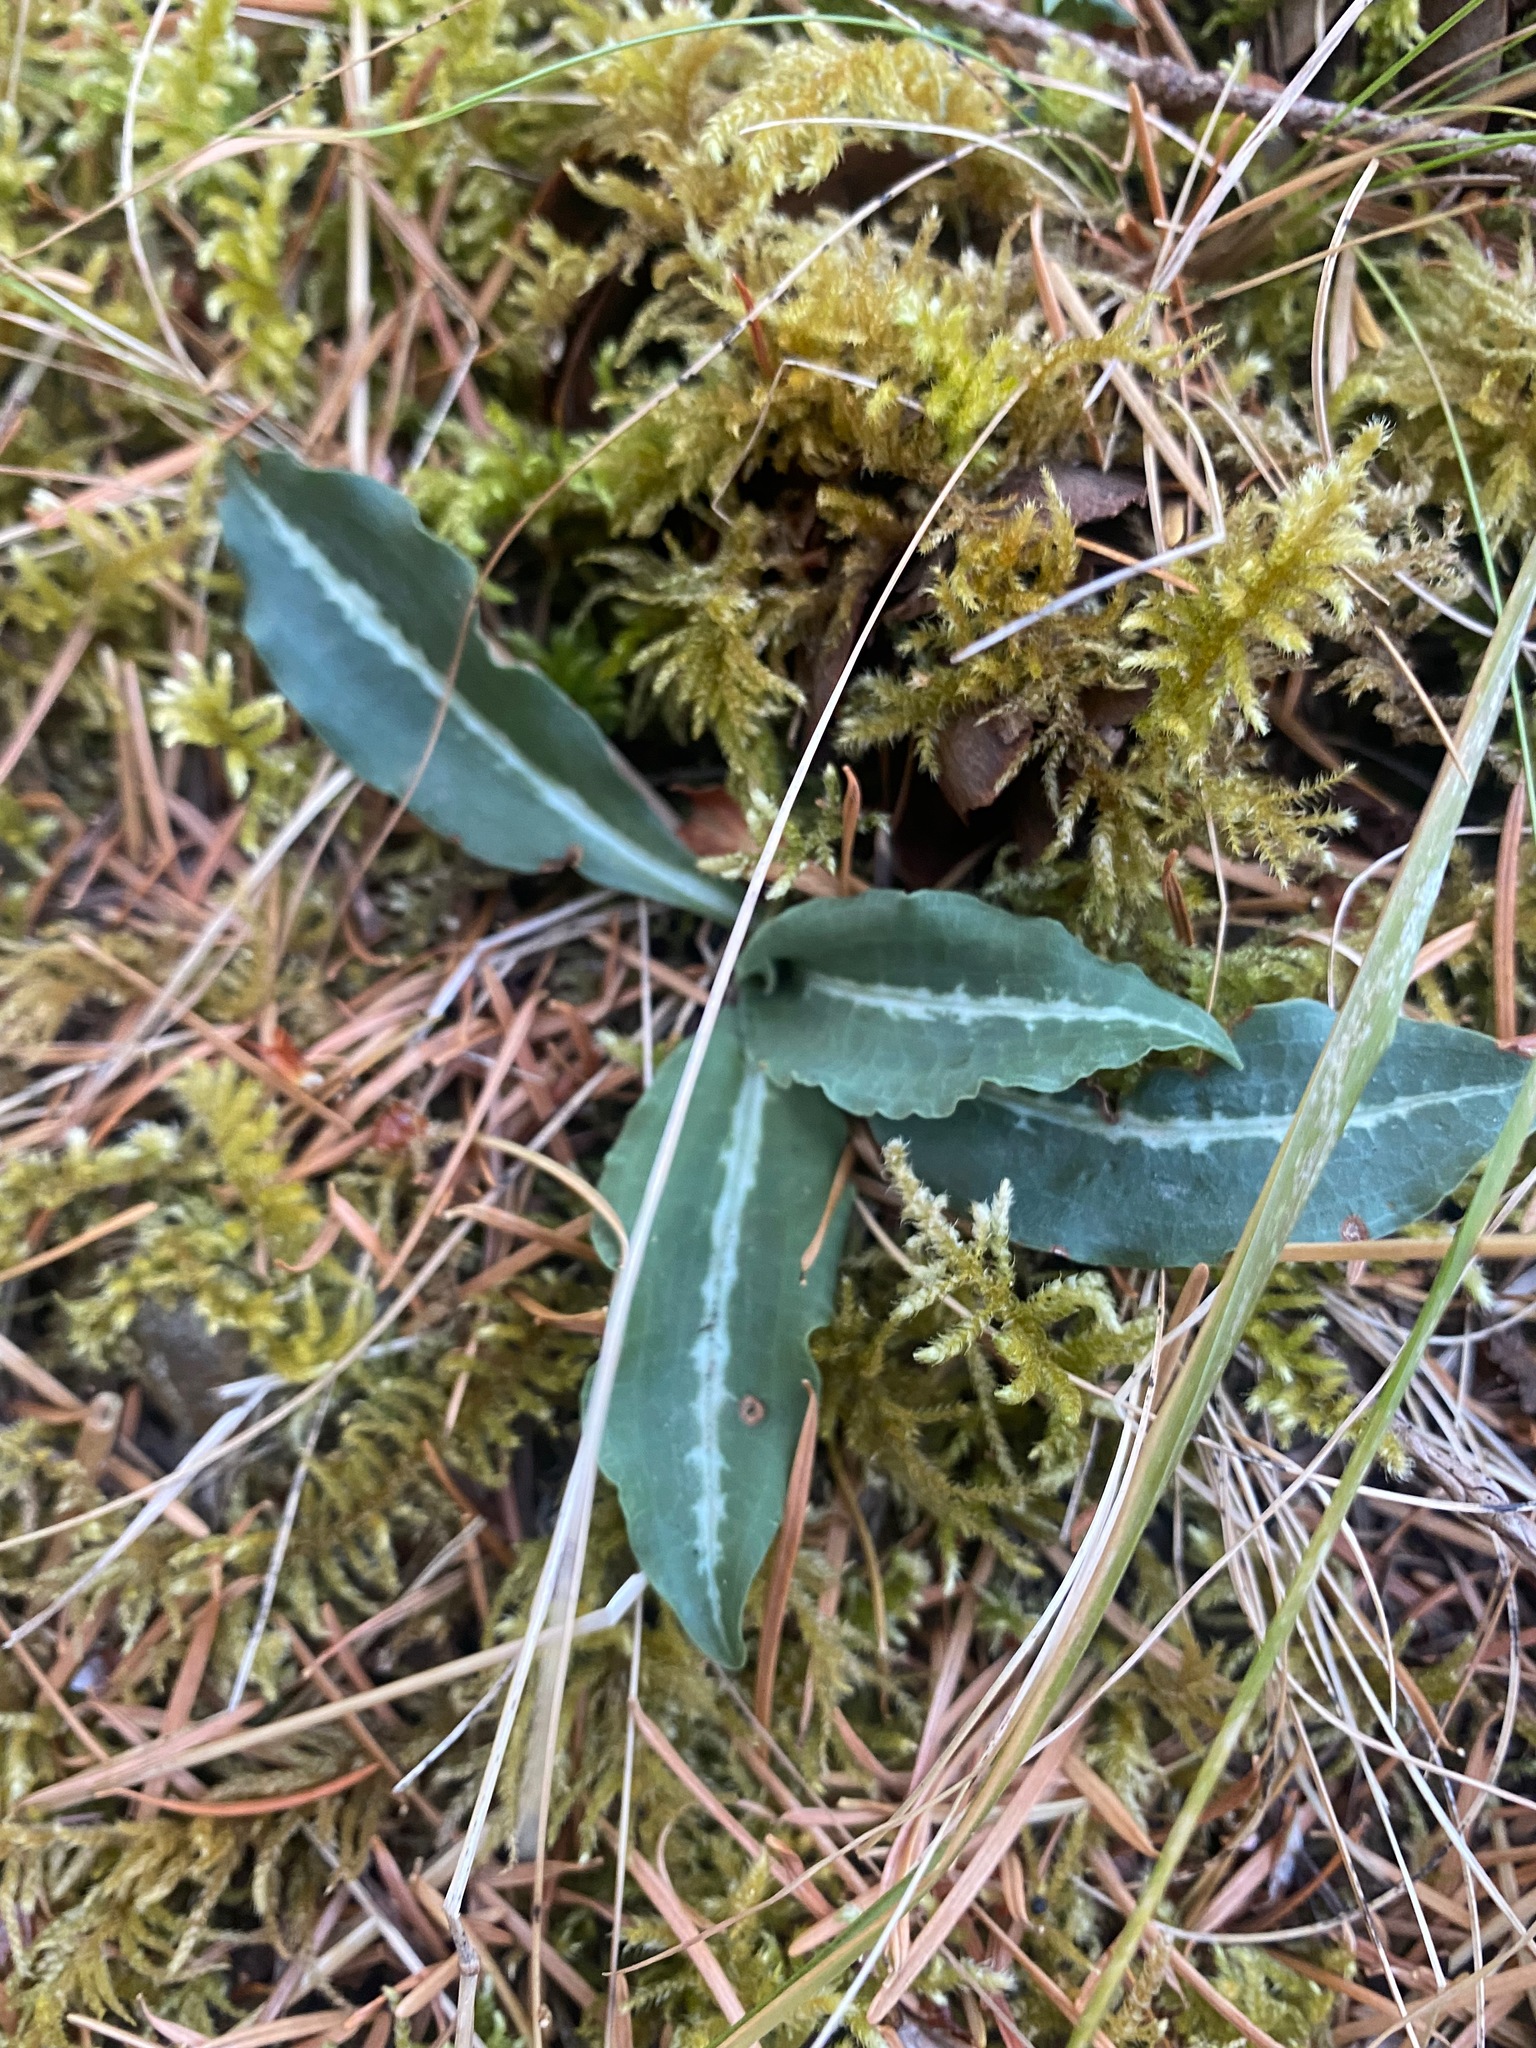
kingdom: Plantae
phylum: Tracheophyta
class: Liliopsida
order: Asparagales
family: Orchidaceae
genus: Goodyera
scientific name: Goodyera oblongifolia
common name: Giant rattlesnake-plantain
